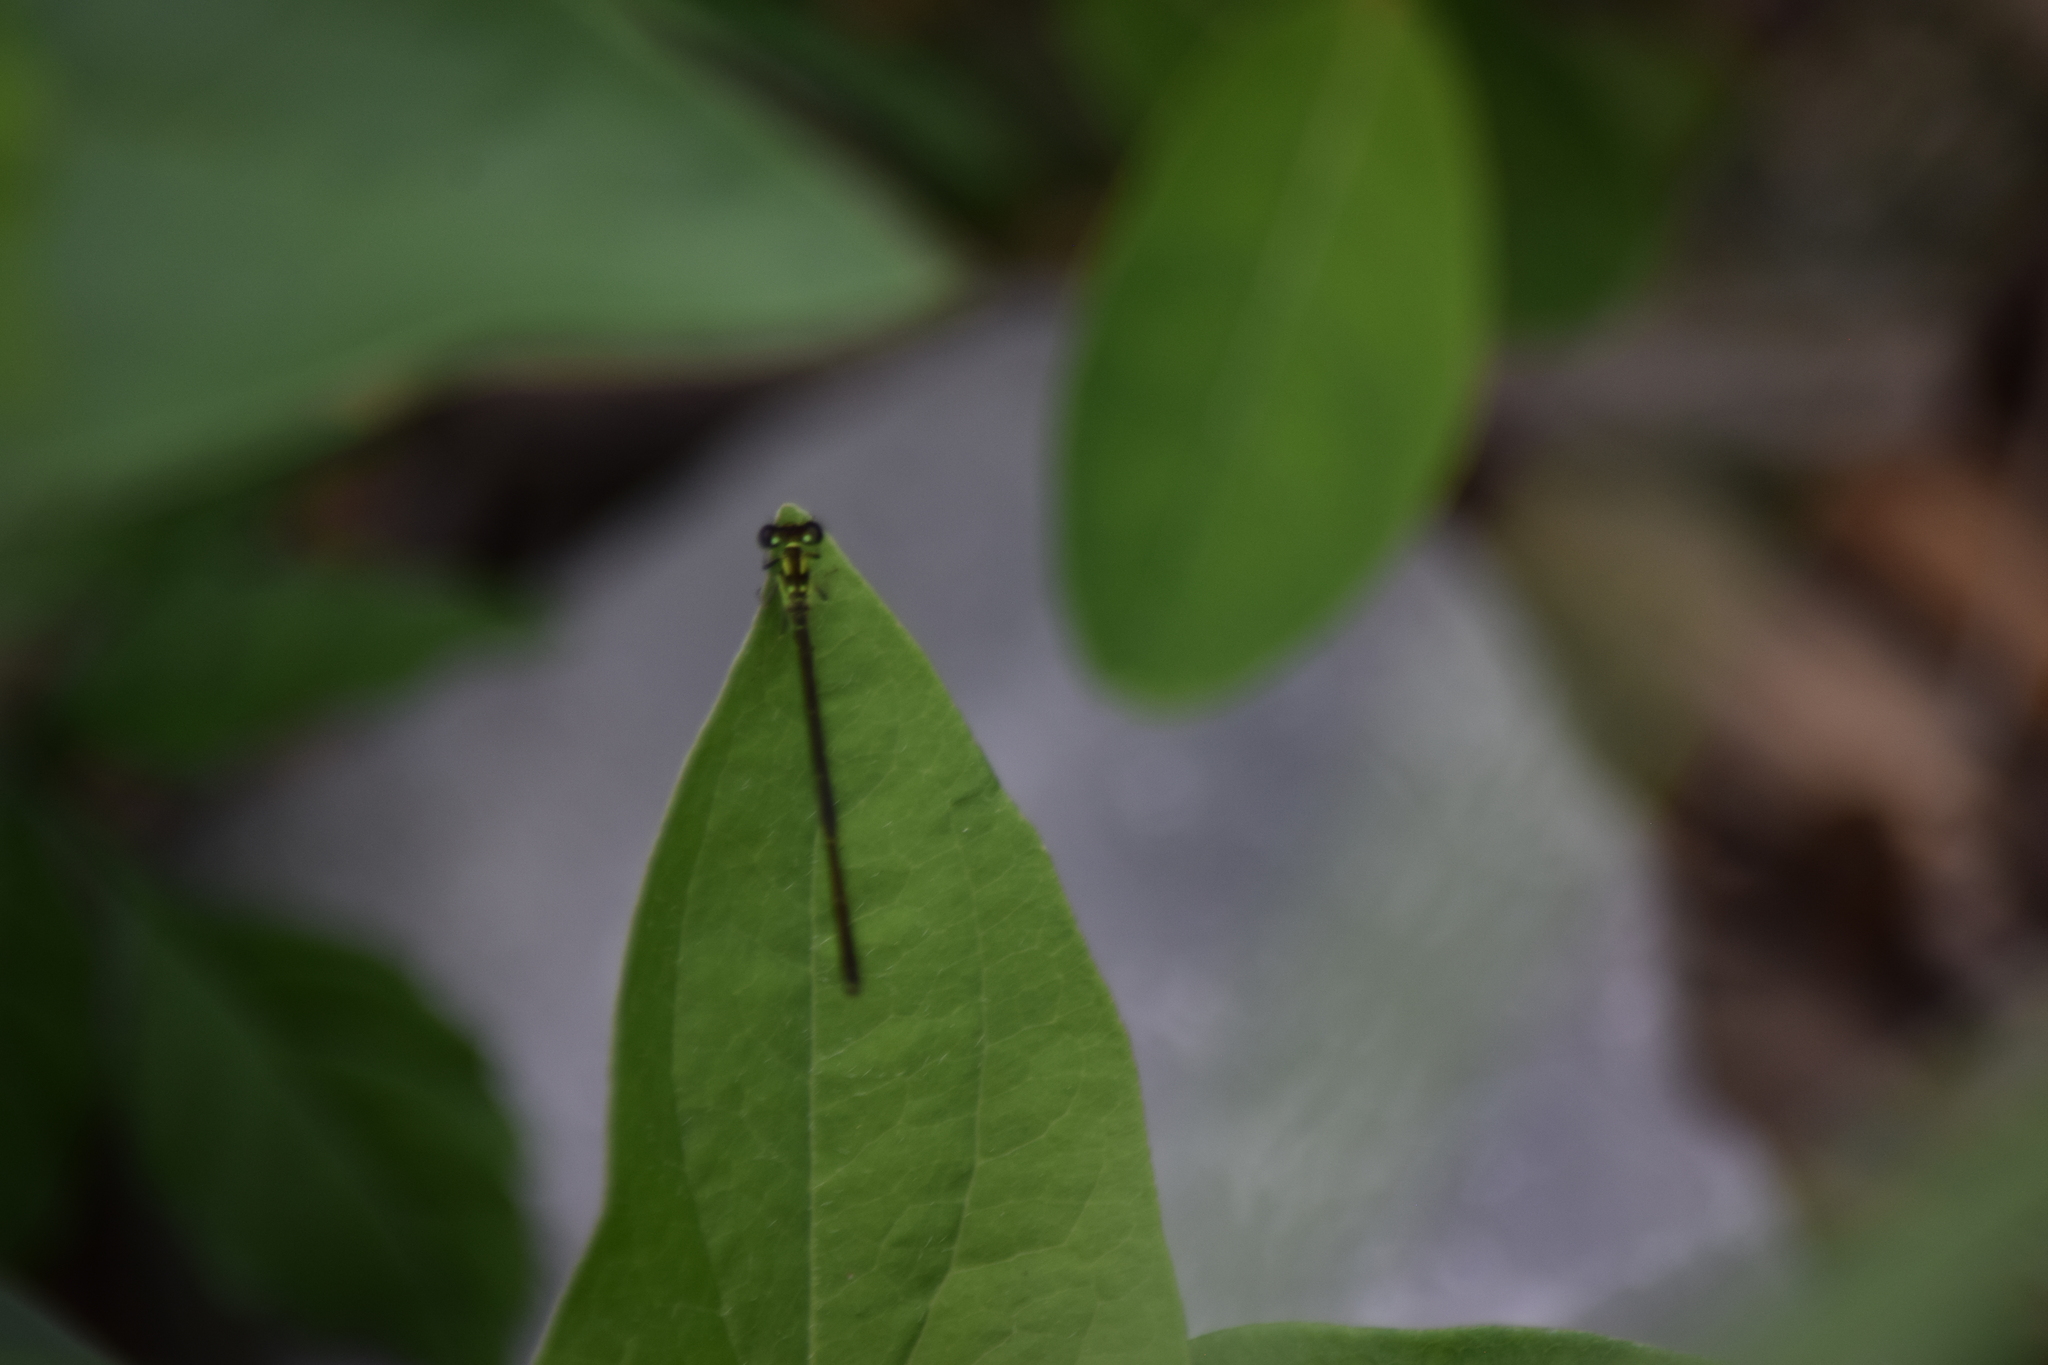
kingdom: Animalia
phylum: Arthropoda
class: Insecta
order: Odonata
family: Coenagrionidae
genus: Ischnura
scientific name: Ischnura posita
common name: Fragile forktail
